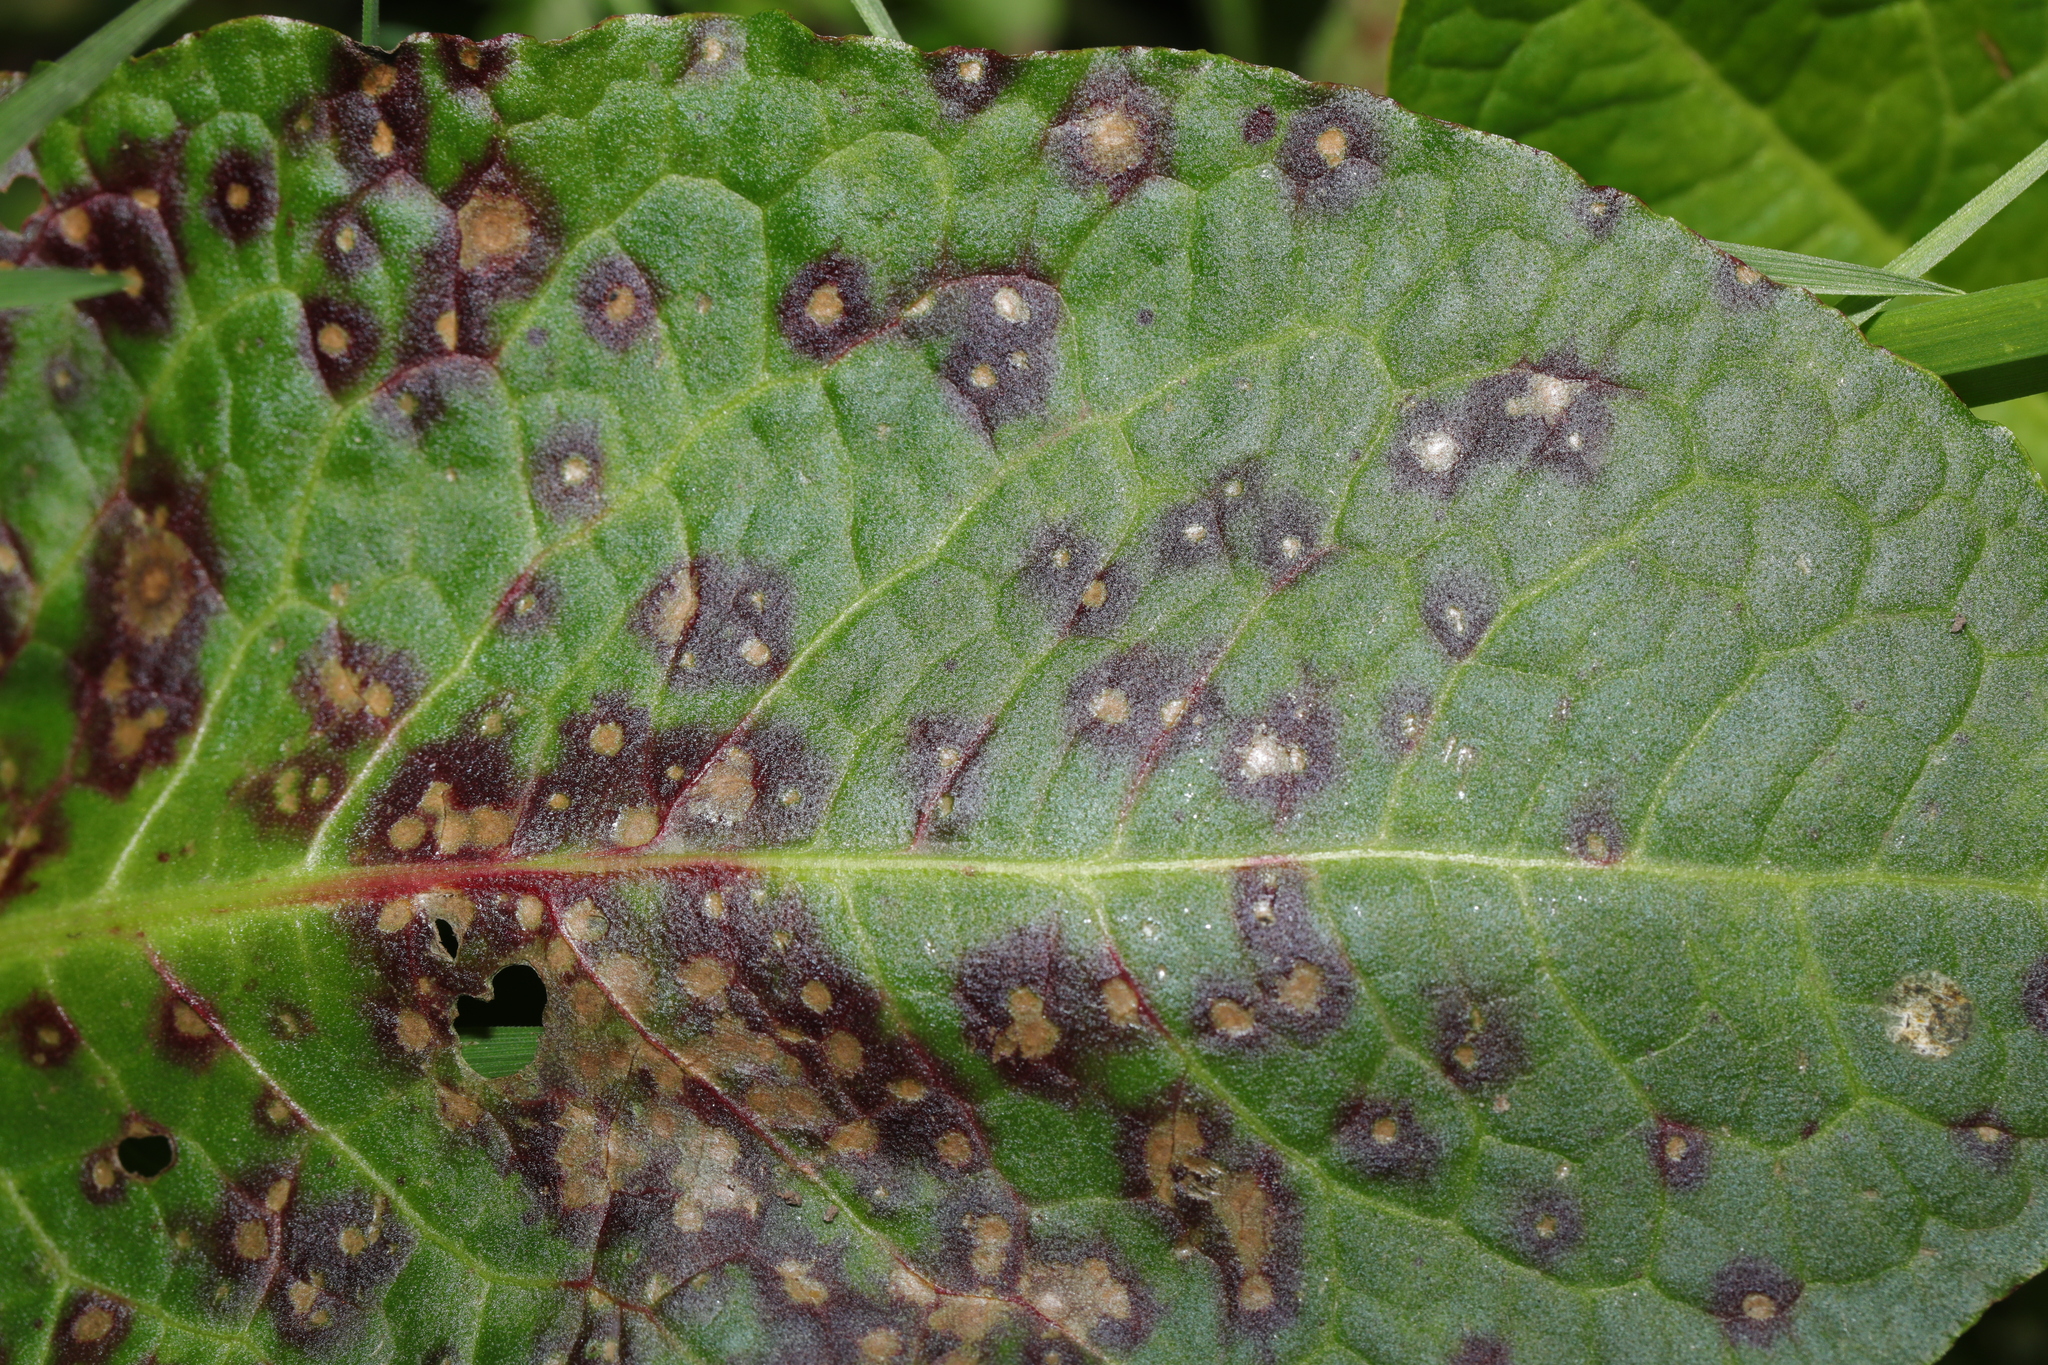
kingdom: Fungi
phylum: Ascomycota
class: Dothideomycetes
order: Mycosphaerellales
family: Mycosphaerellaceae
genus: Ramularia
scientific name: Ramularia rubella
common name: Red dock spot
